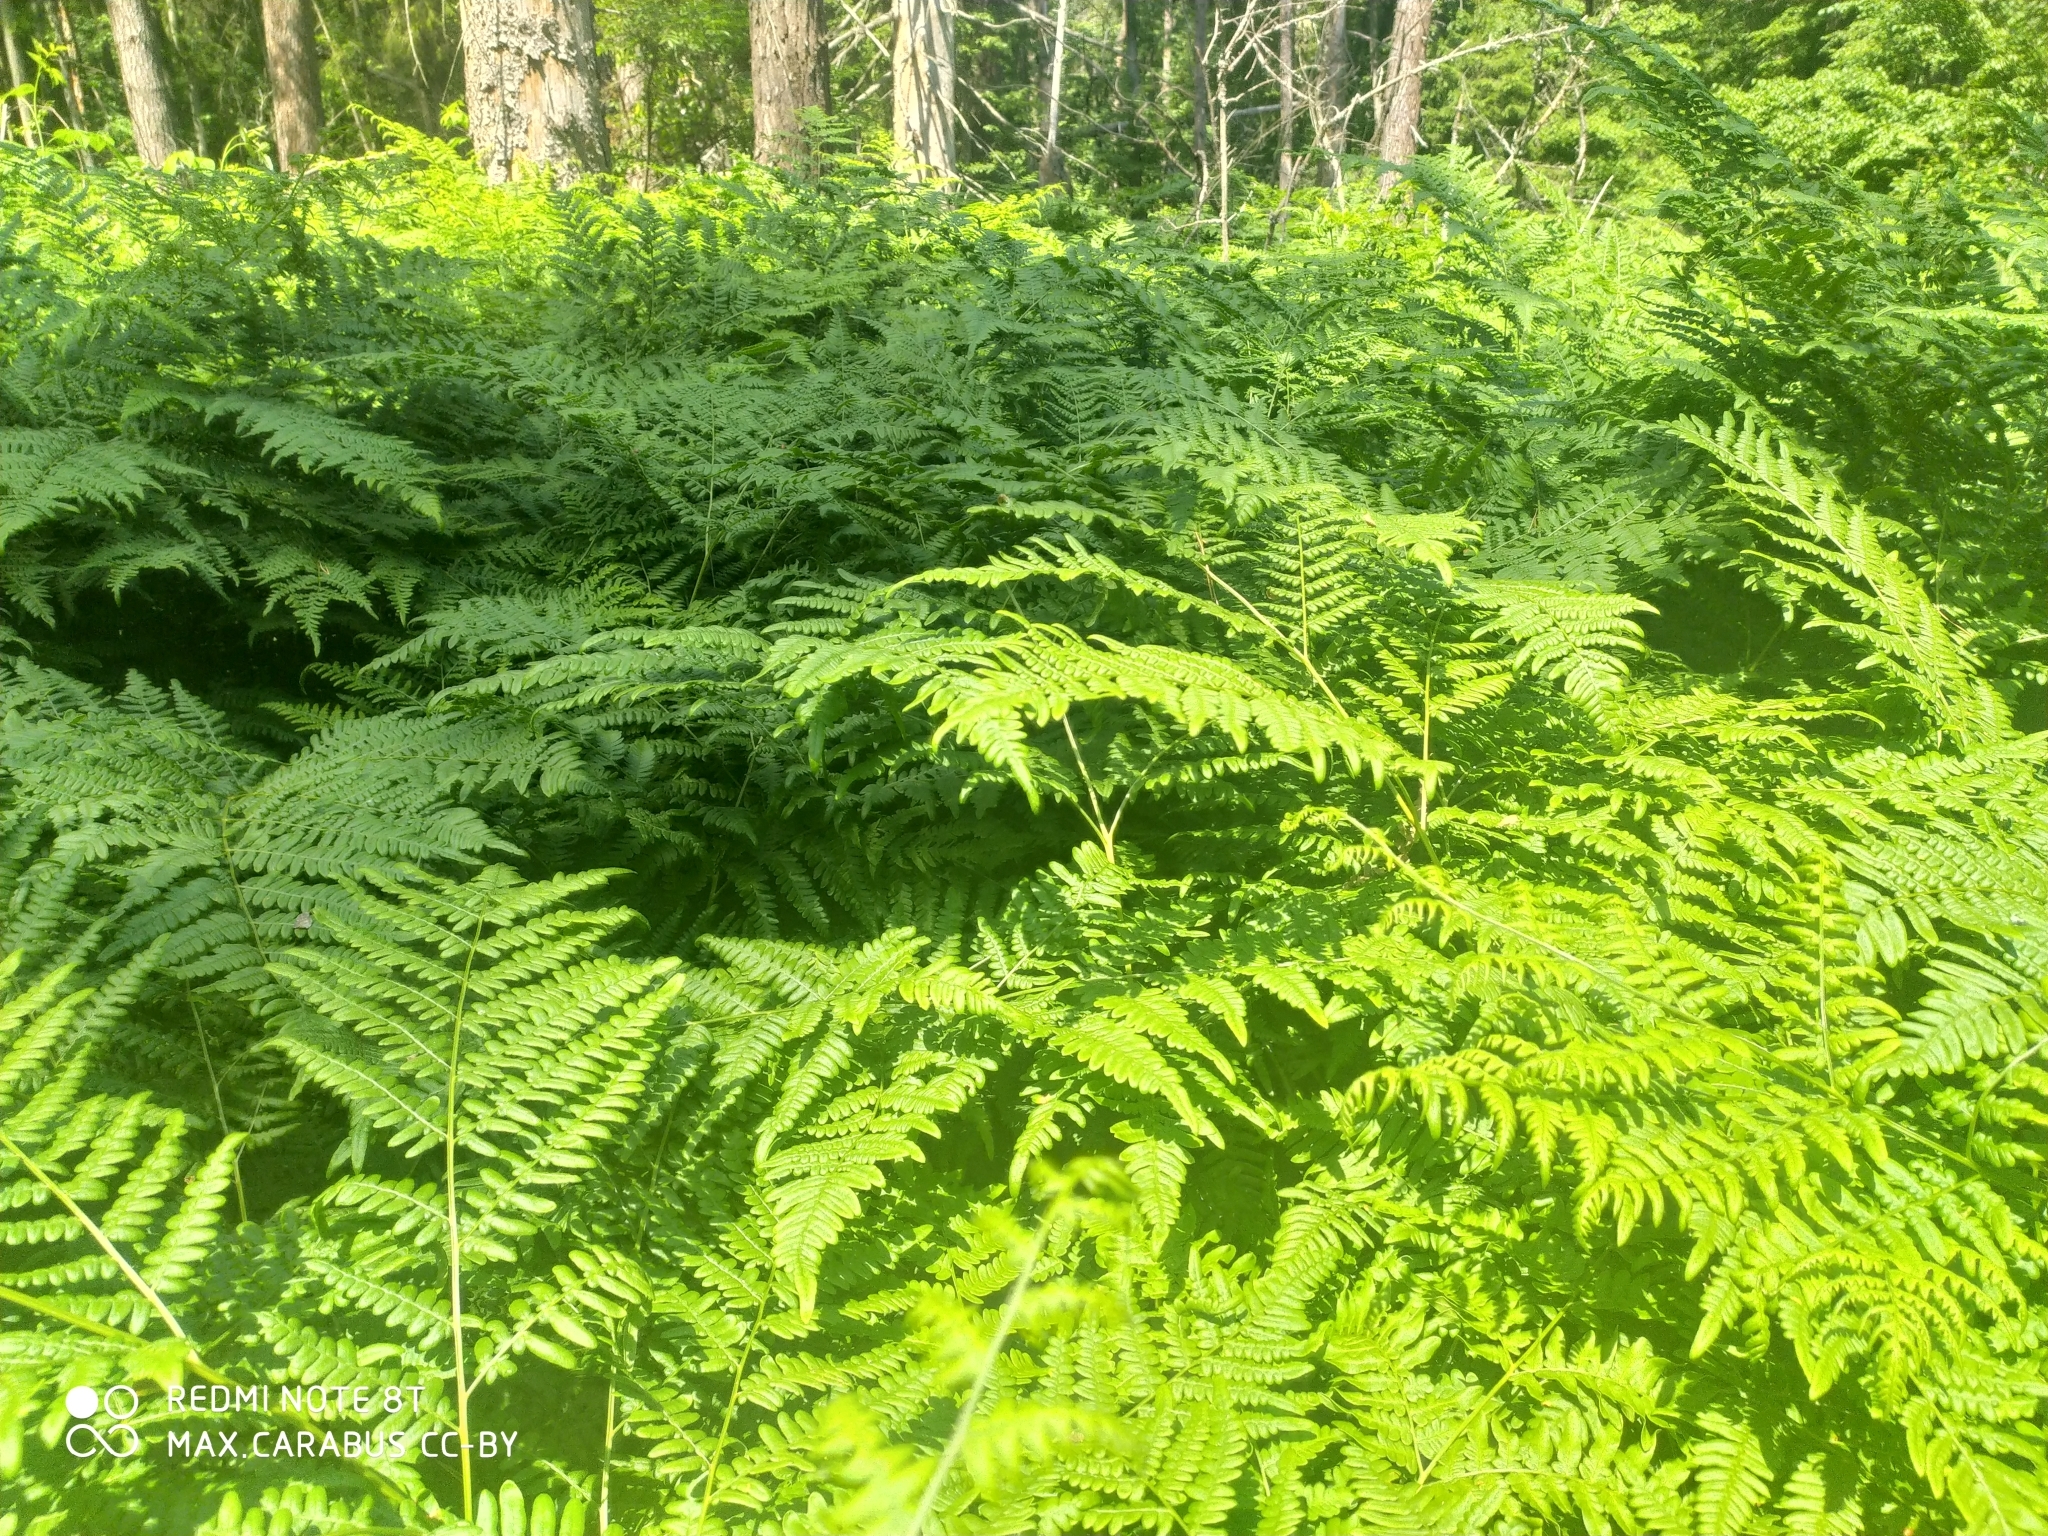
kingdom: Plantae
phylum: Tracheophyta
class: Polypodiopsida
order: Polypodiales
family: Dennstaedtiaceae
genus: Pteridium
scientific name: Pteridium aquilinum
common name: Bracken
